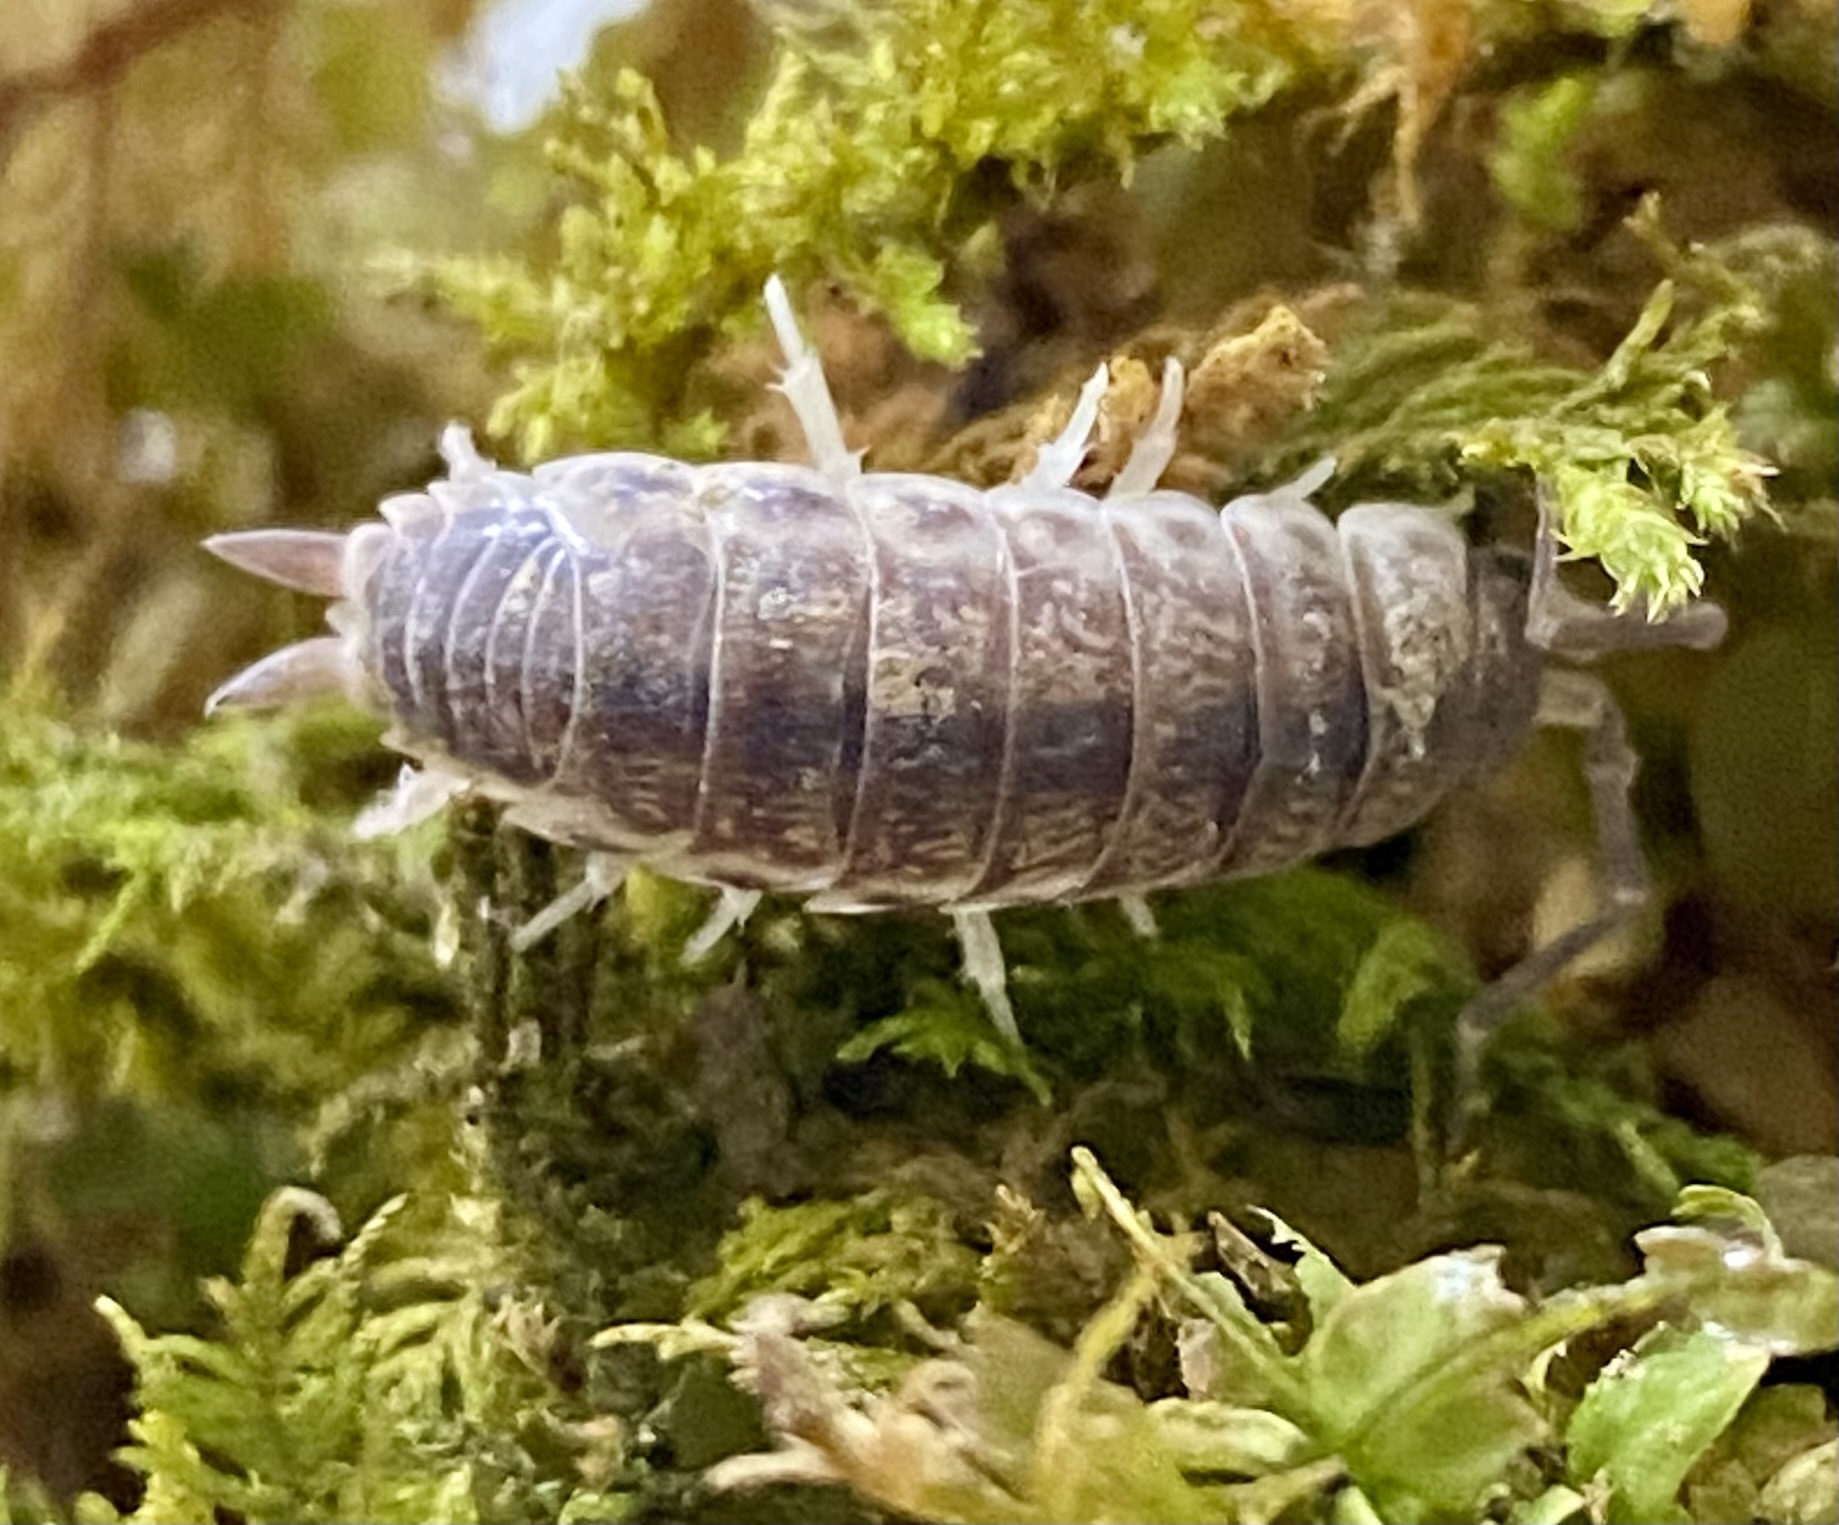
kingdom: Animalia
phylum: Arthropoda
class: Malacostraca
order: Isopoda
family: Agnaridae
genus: Hemilepistus
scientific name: Hemilepistus elongatus
